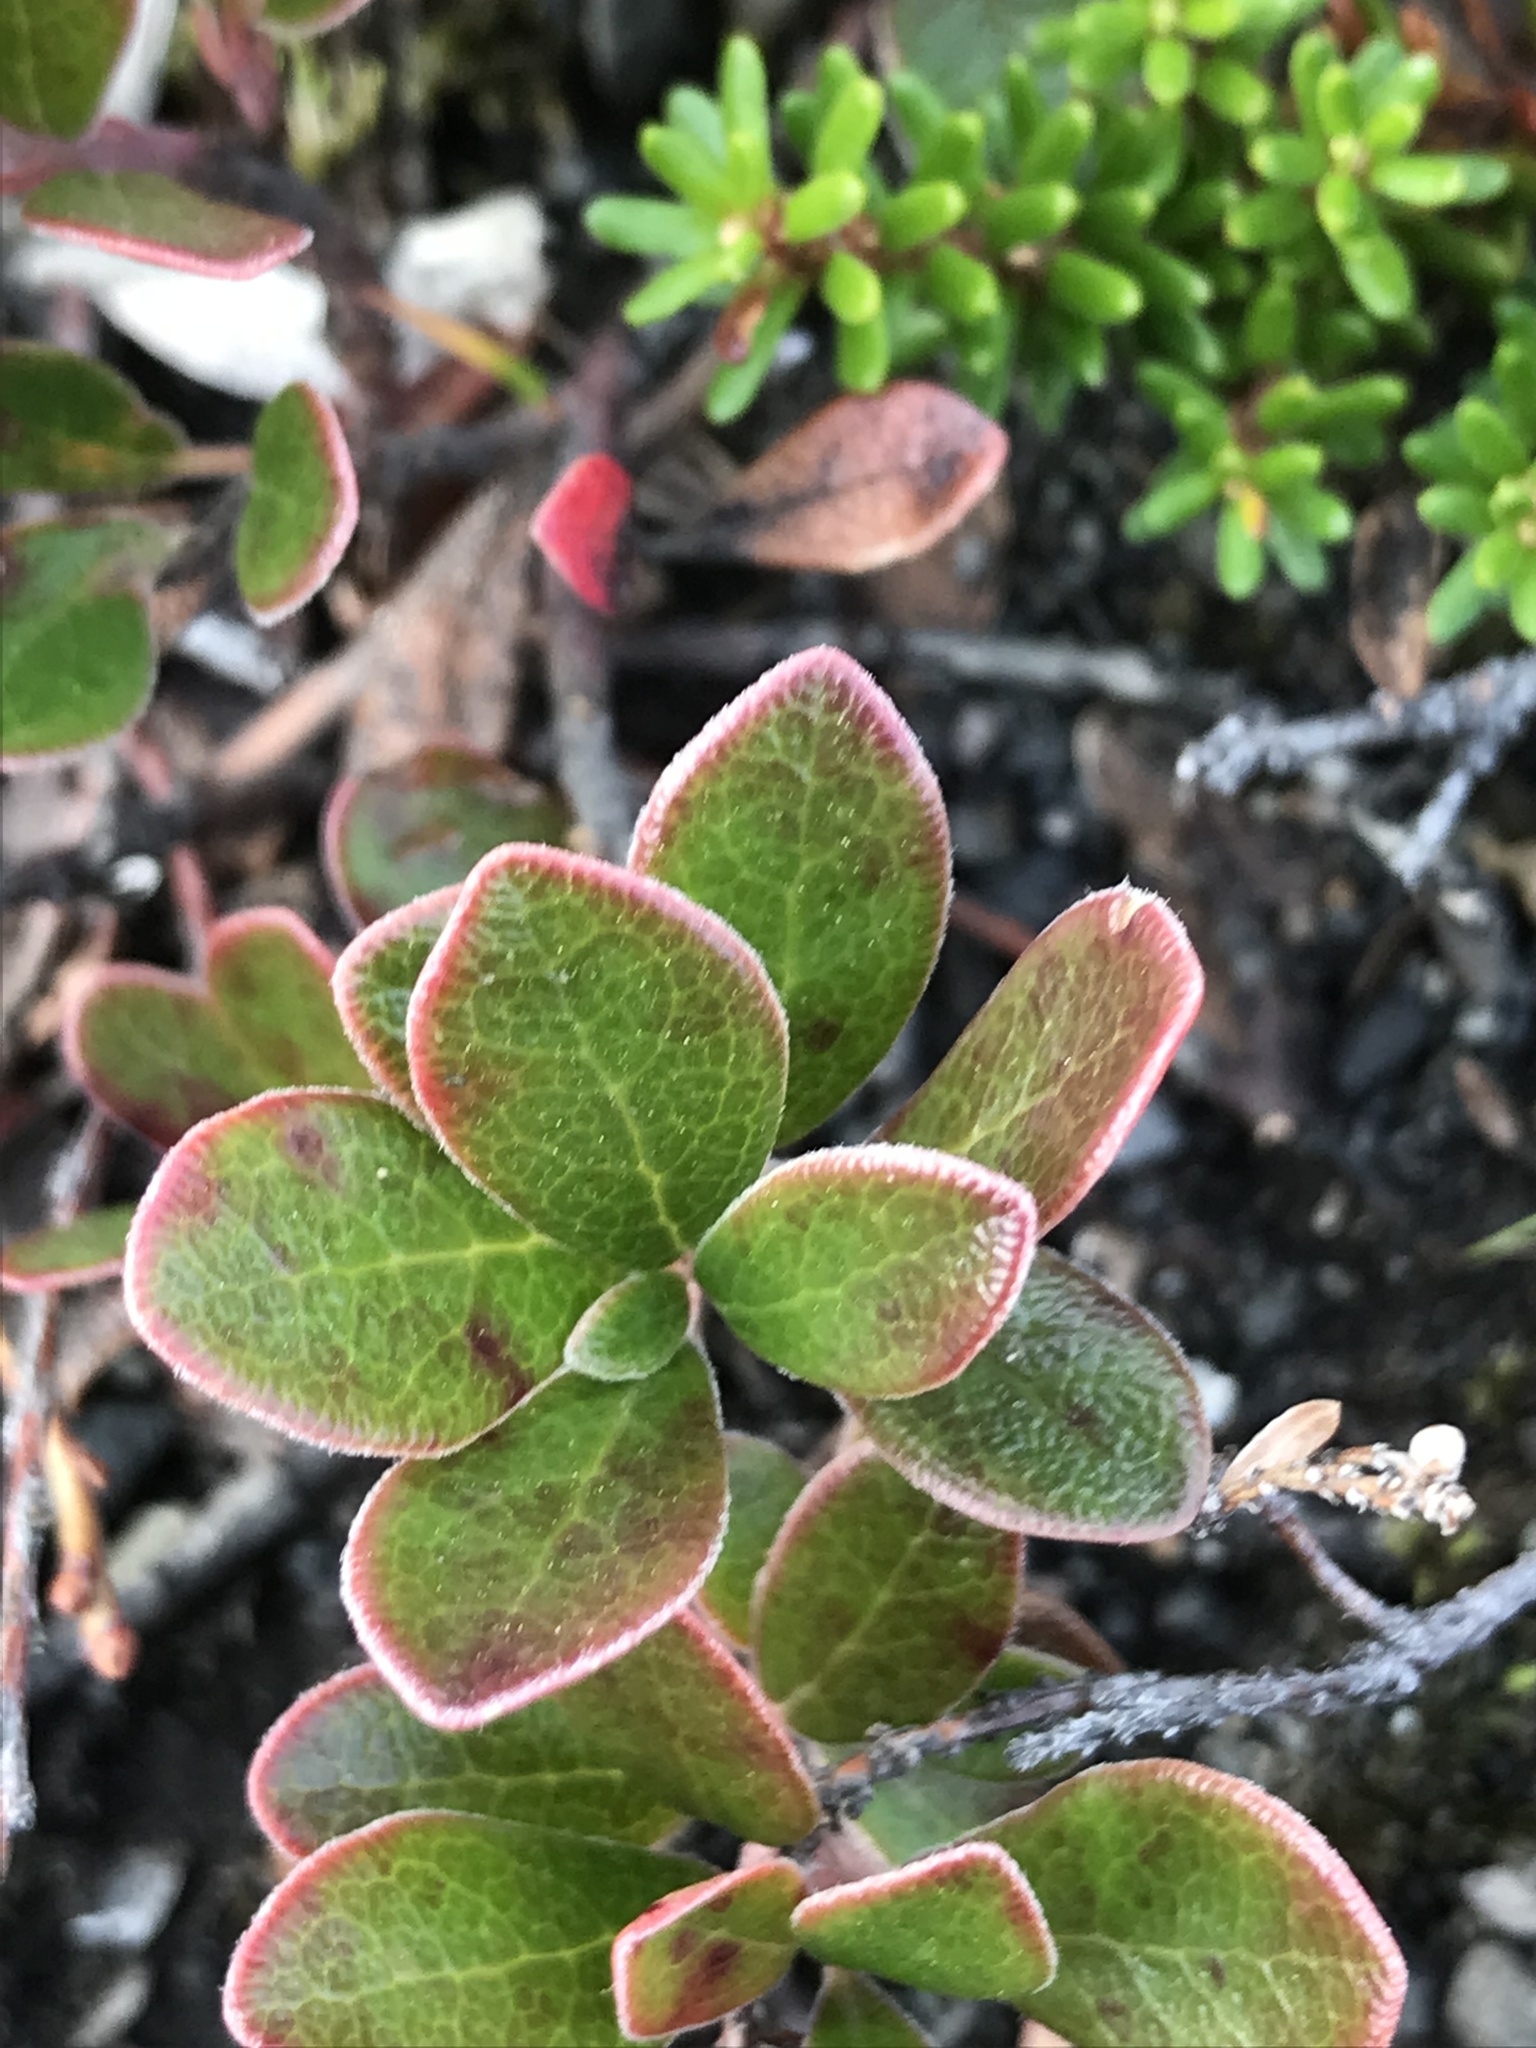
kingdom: Plantae
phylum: Tracheophyta
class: Magnoliopsida
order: Ericales
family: Ericaceae
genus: Arctostaphylos
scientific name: Arctostaphylos uva-ursi
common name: Bearberry
